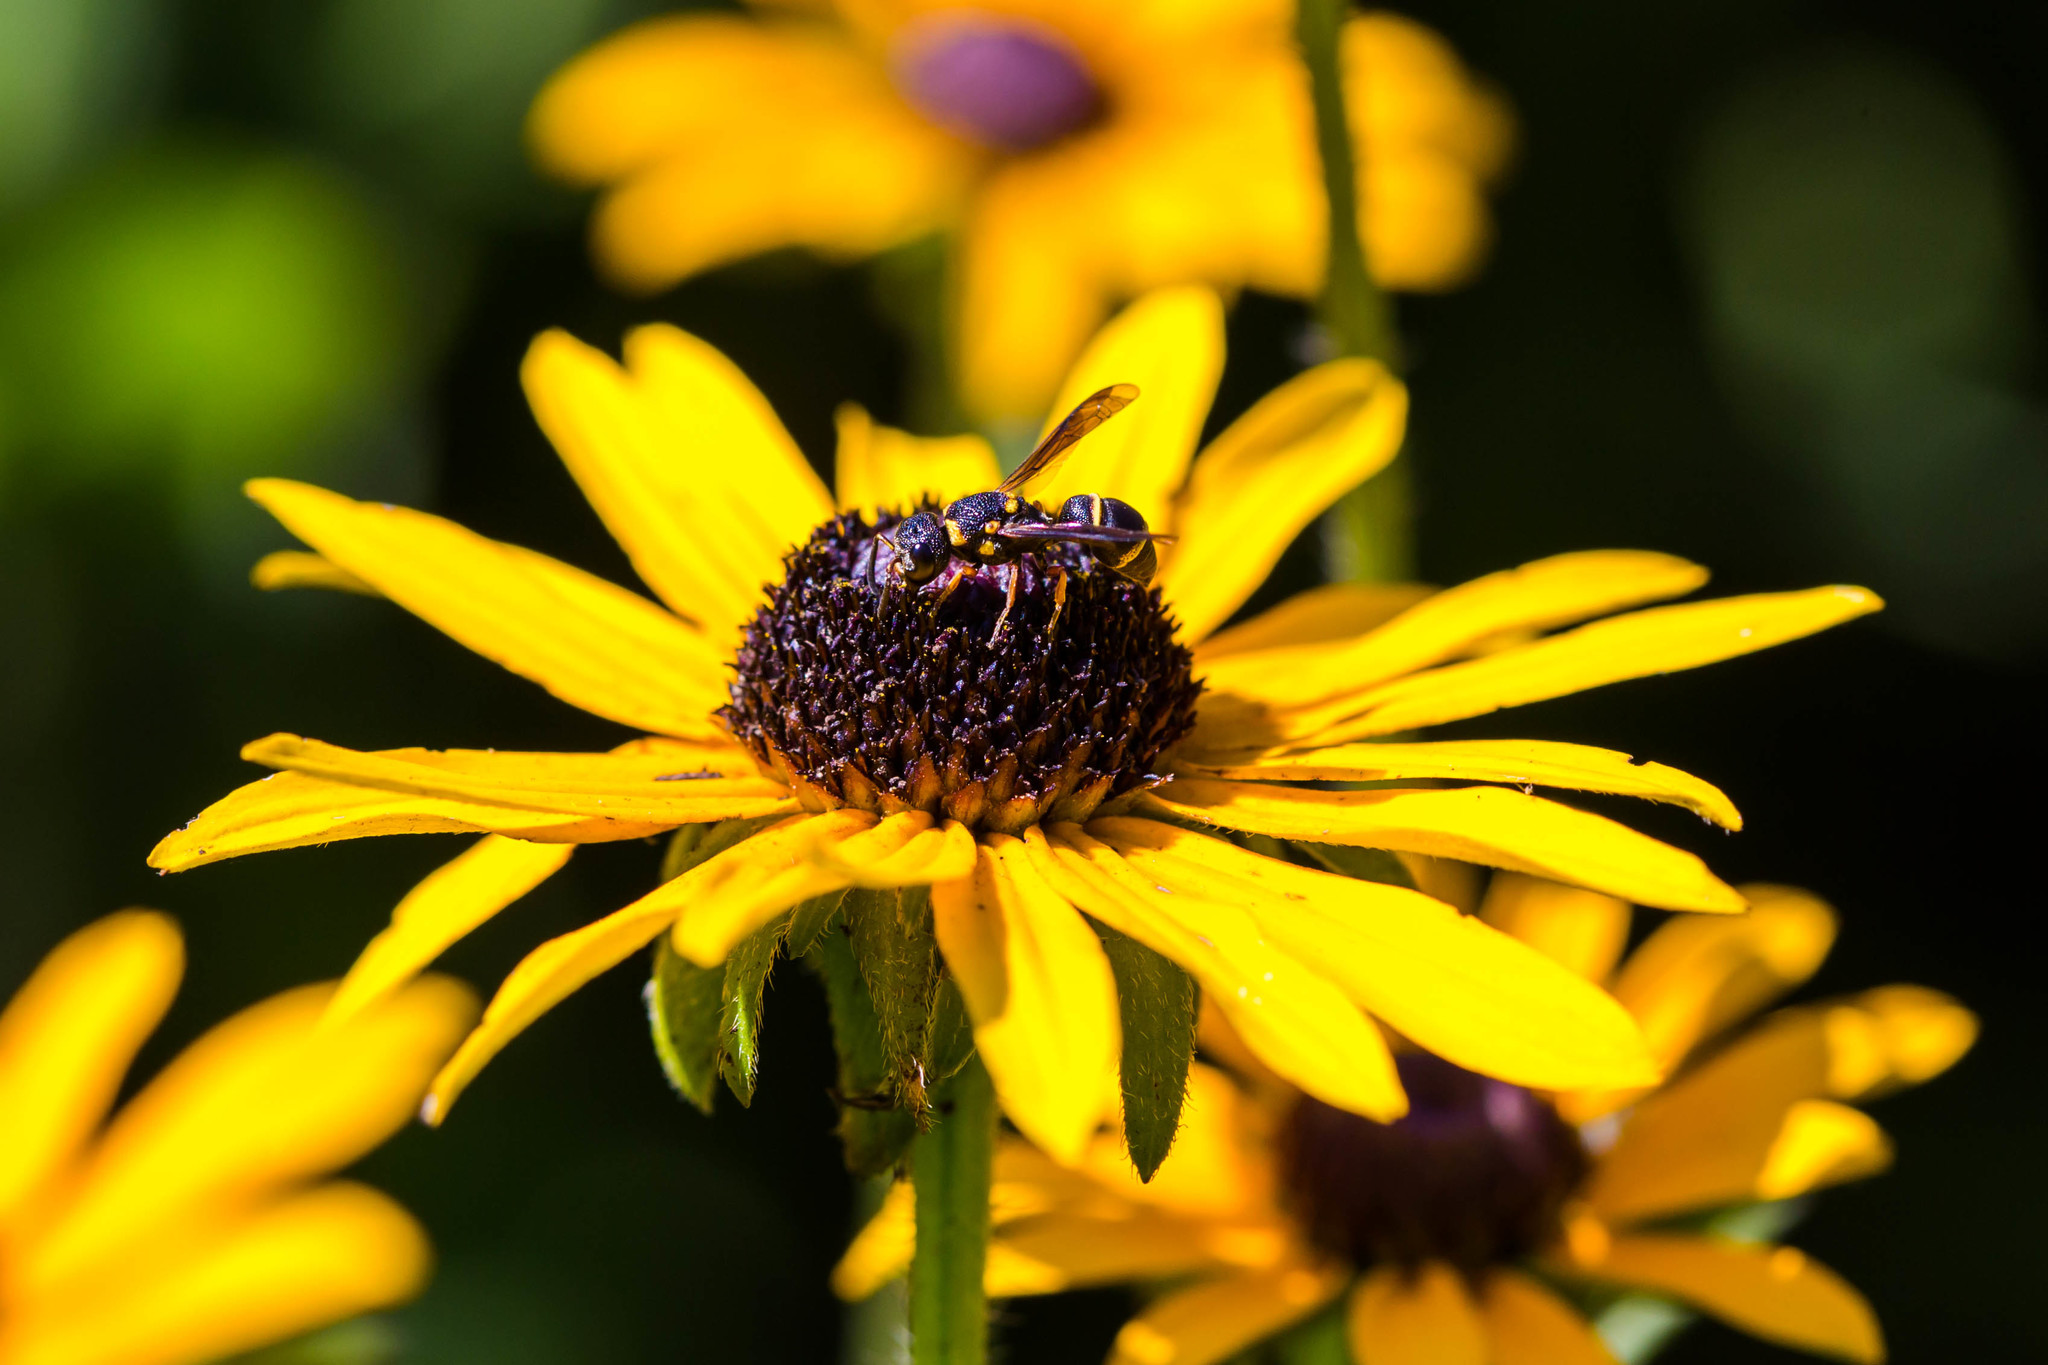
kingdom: Animalia
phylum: Arthropoda
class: Insecta
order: Hymenoptera
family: Eumenidae
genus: Cyrtolabulus
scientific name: Cyrtolabulus mutinensis
